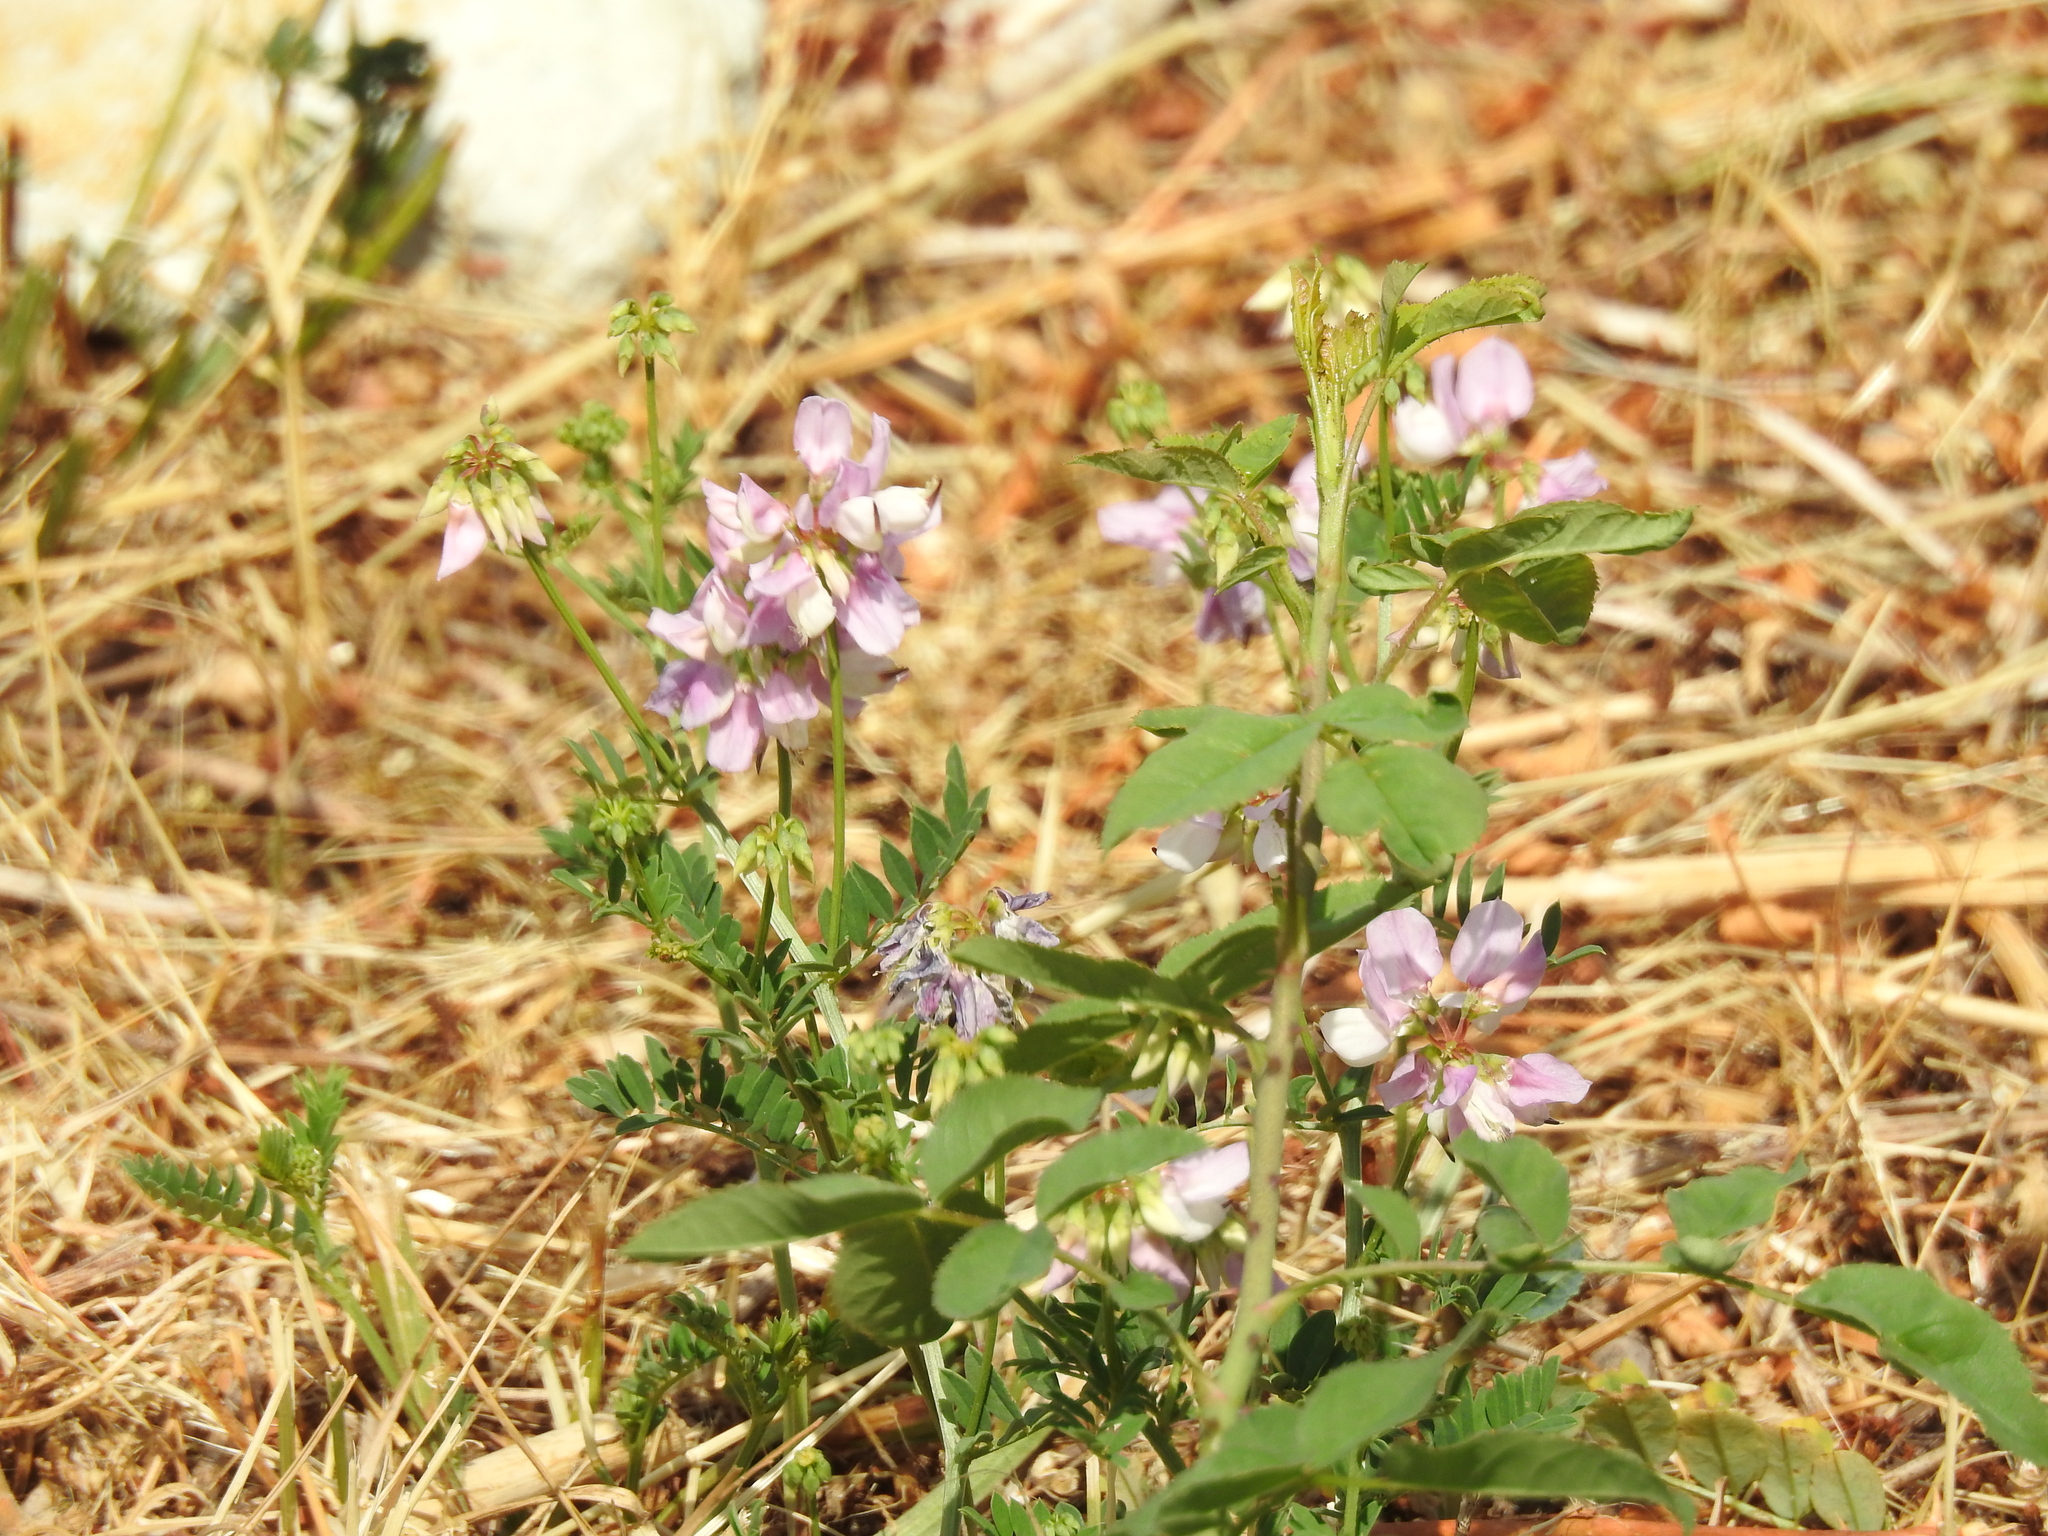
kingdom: Plantae
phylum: Tracheophyta
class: Magnoliopsida
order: Fabales
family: Fabaceae
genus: Coronilla
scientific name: Coronilla varia
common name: Crownvetch
